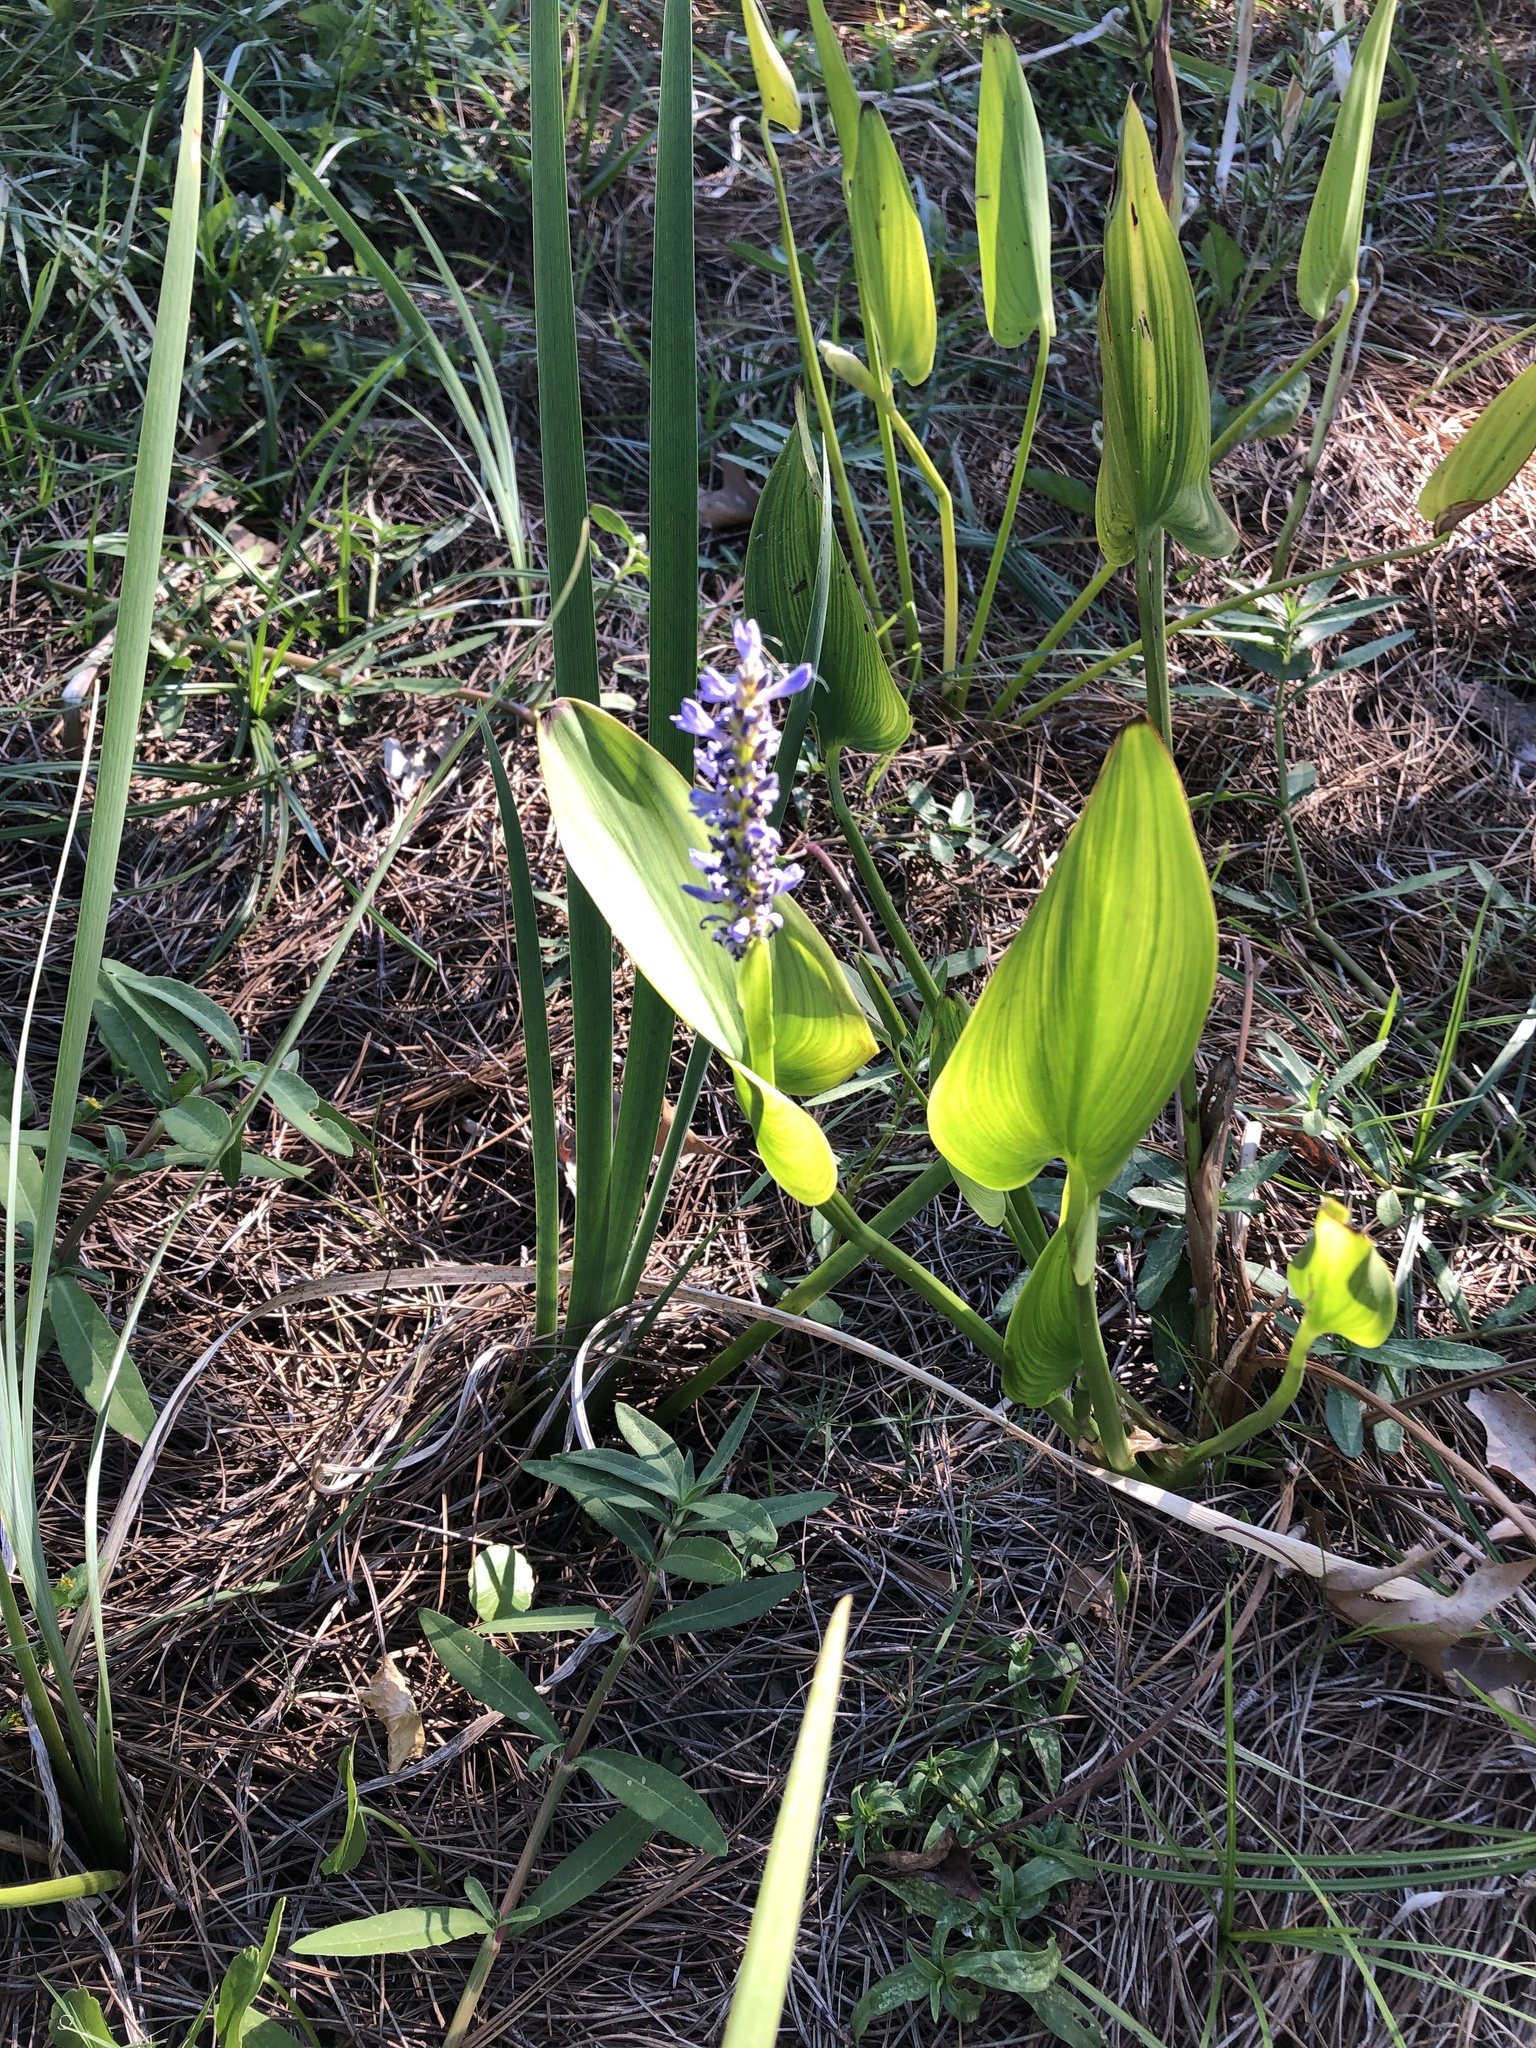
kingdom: Plantae
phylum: Tracheophyta
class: Liliopsida
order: Commelinales
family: Pontederiaceae
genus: Pontederia
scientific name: Pontederia cordata
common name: Pickerelweed
